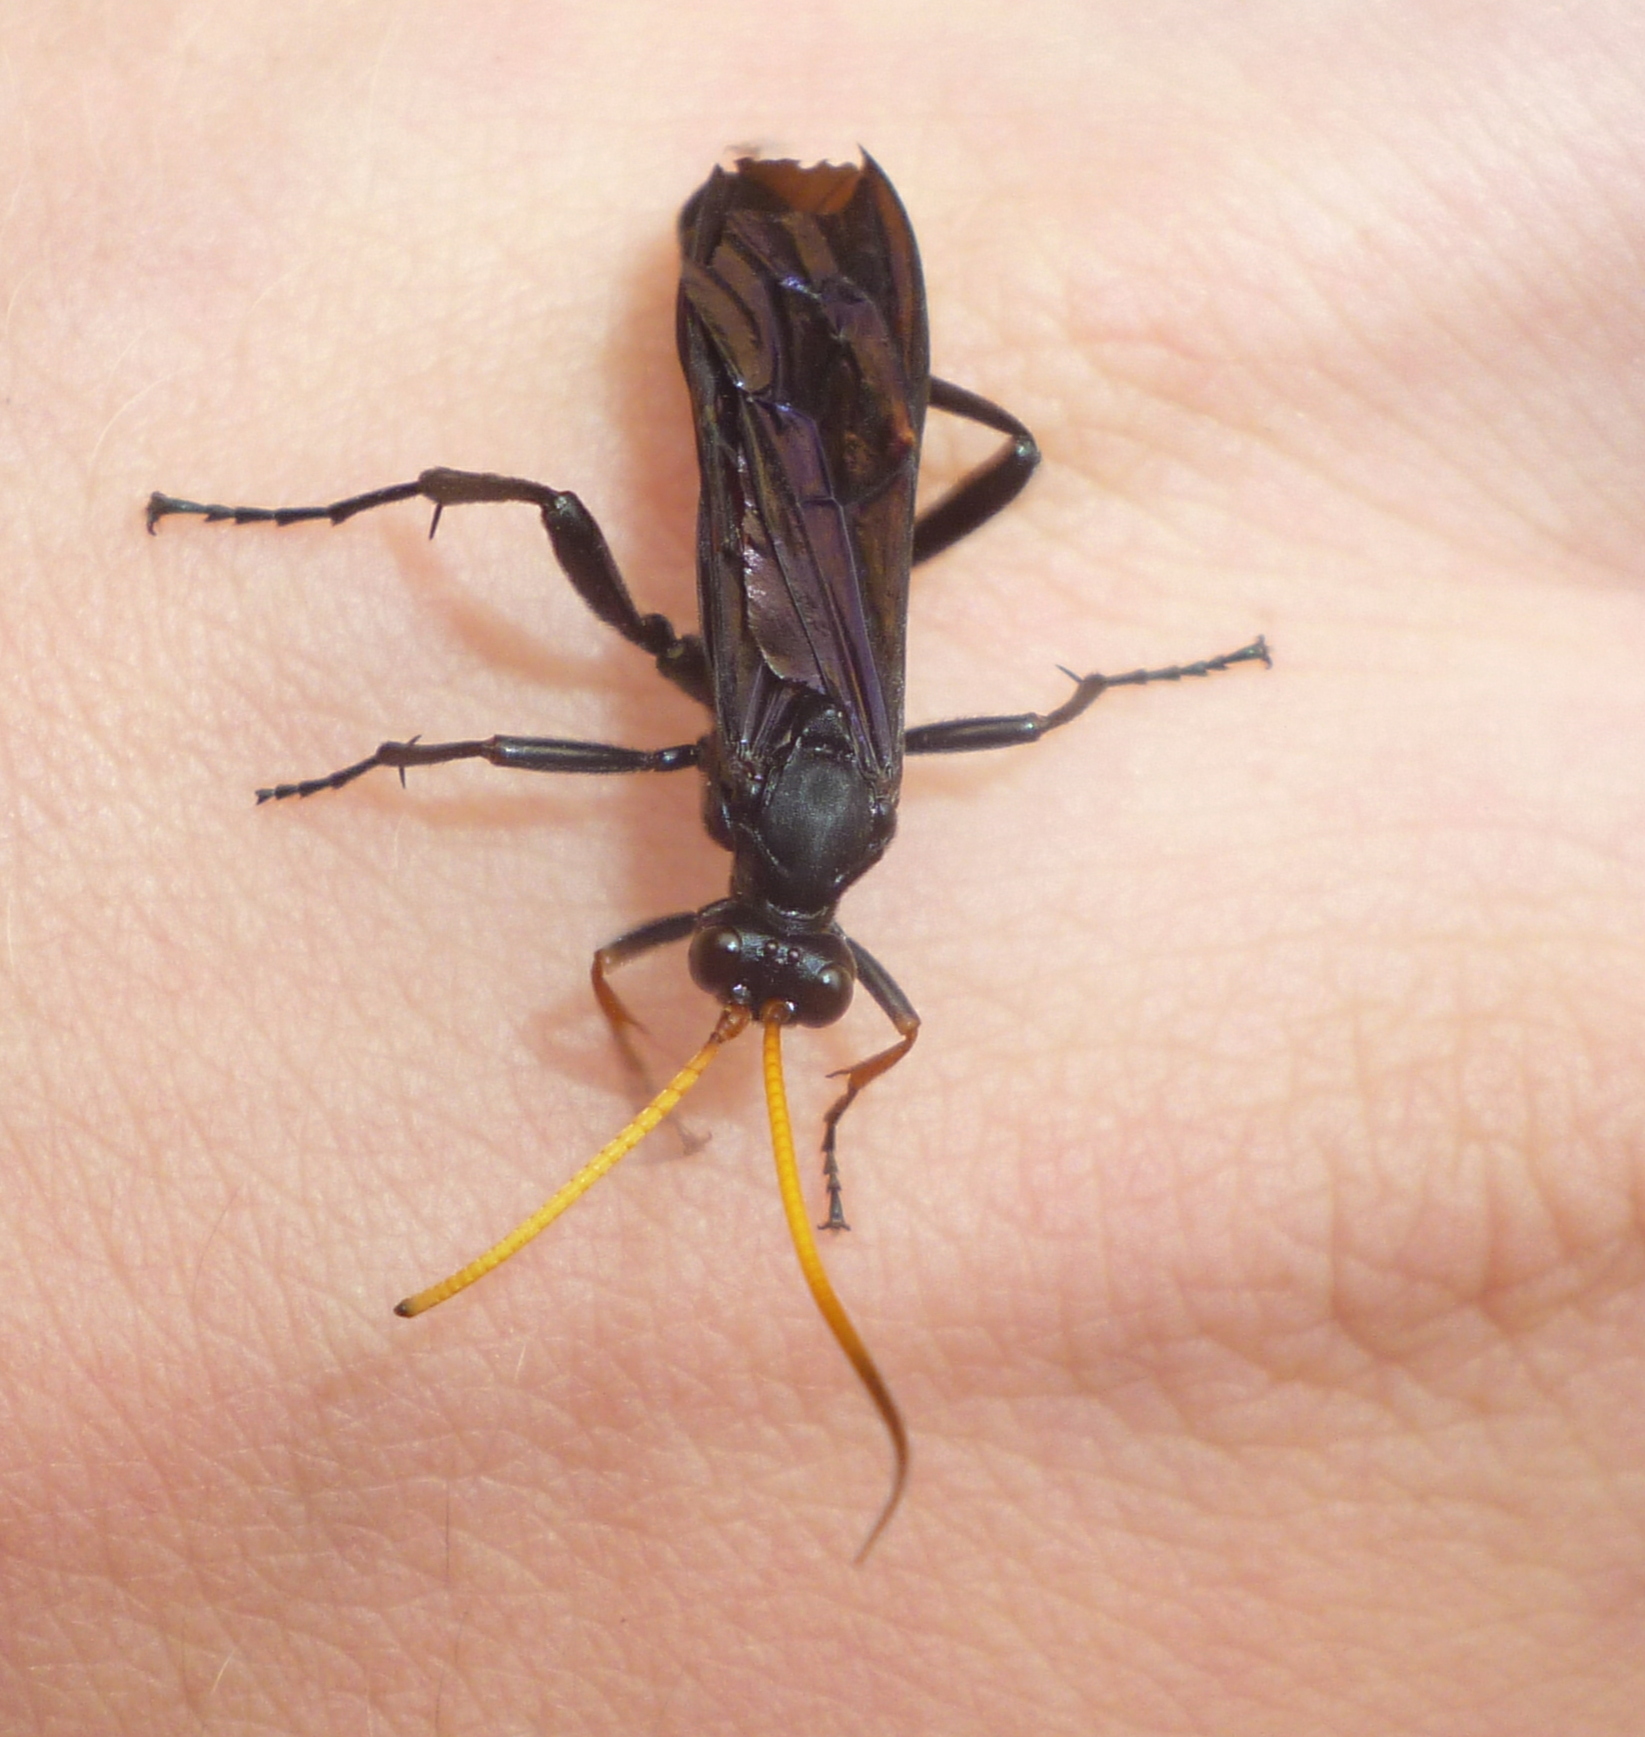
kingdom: Animalia
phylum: Arthropoda
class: Insecta
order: Hymenoptera
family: Ichneumonidae
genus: Gnamptopelta
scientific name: Gnamptopelta obsidianator
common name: Bent-shielded besieger wasp
